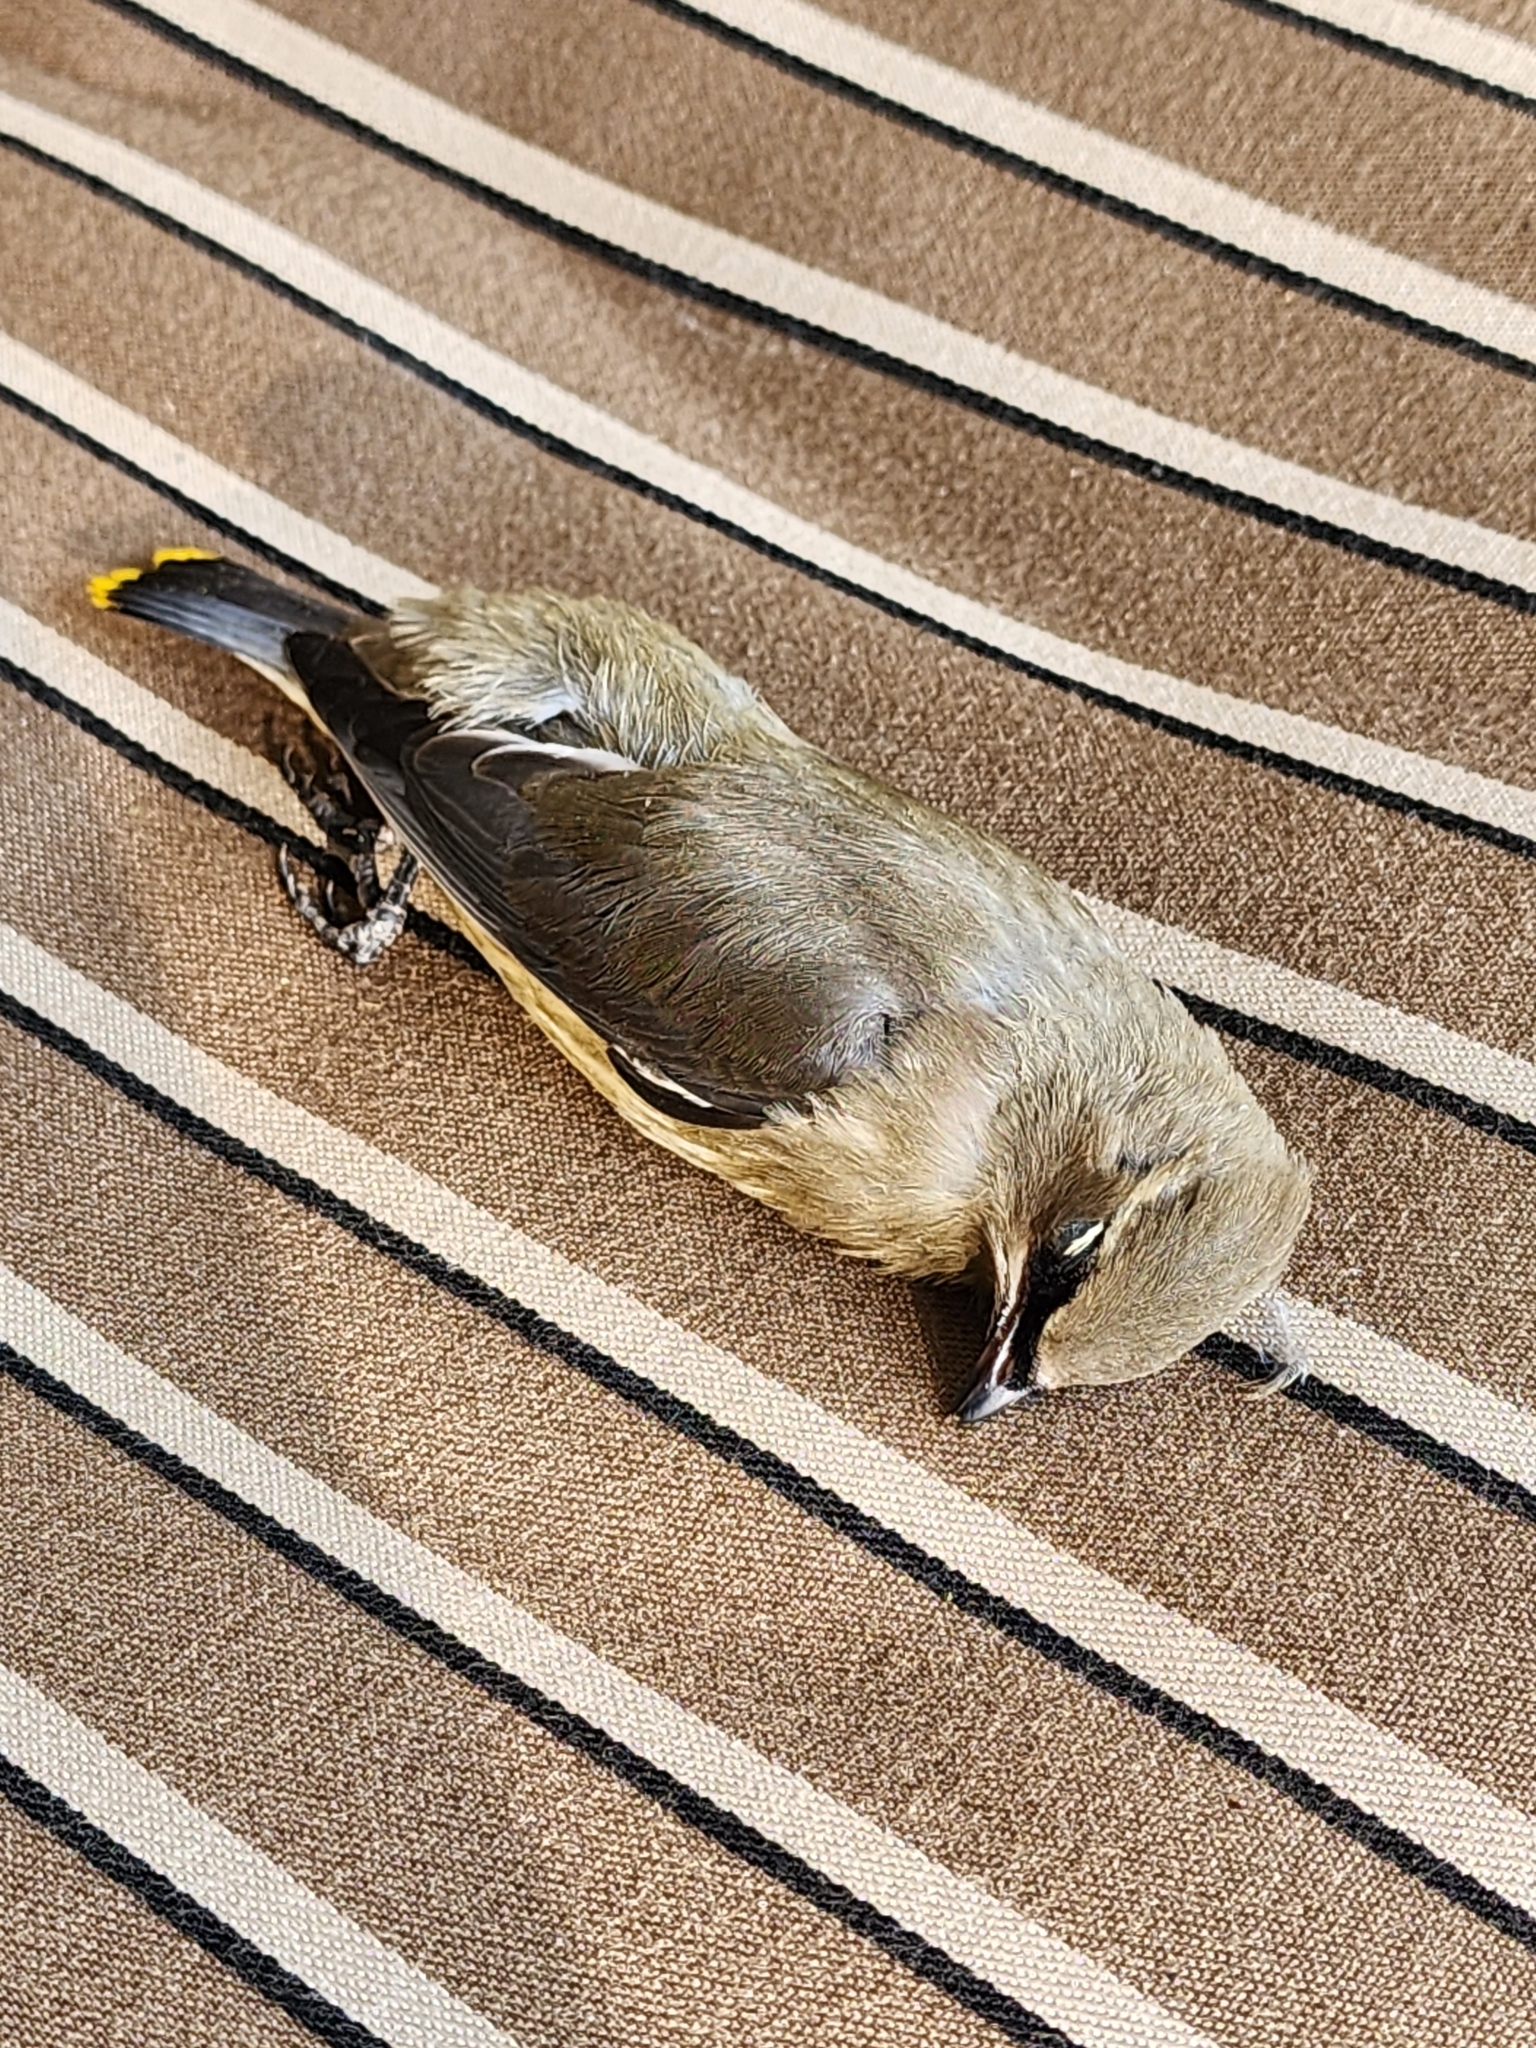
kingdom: Animalia
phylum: Chordata
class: Aves
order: Passeriformes
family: Bombycillidae
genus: Bombycilla
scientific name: Bombycilla cedrorum
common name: Cedar waxwing
